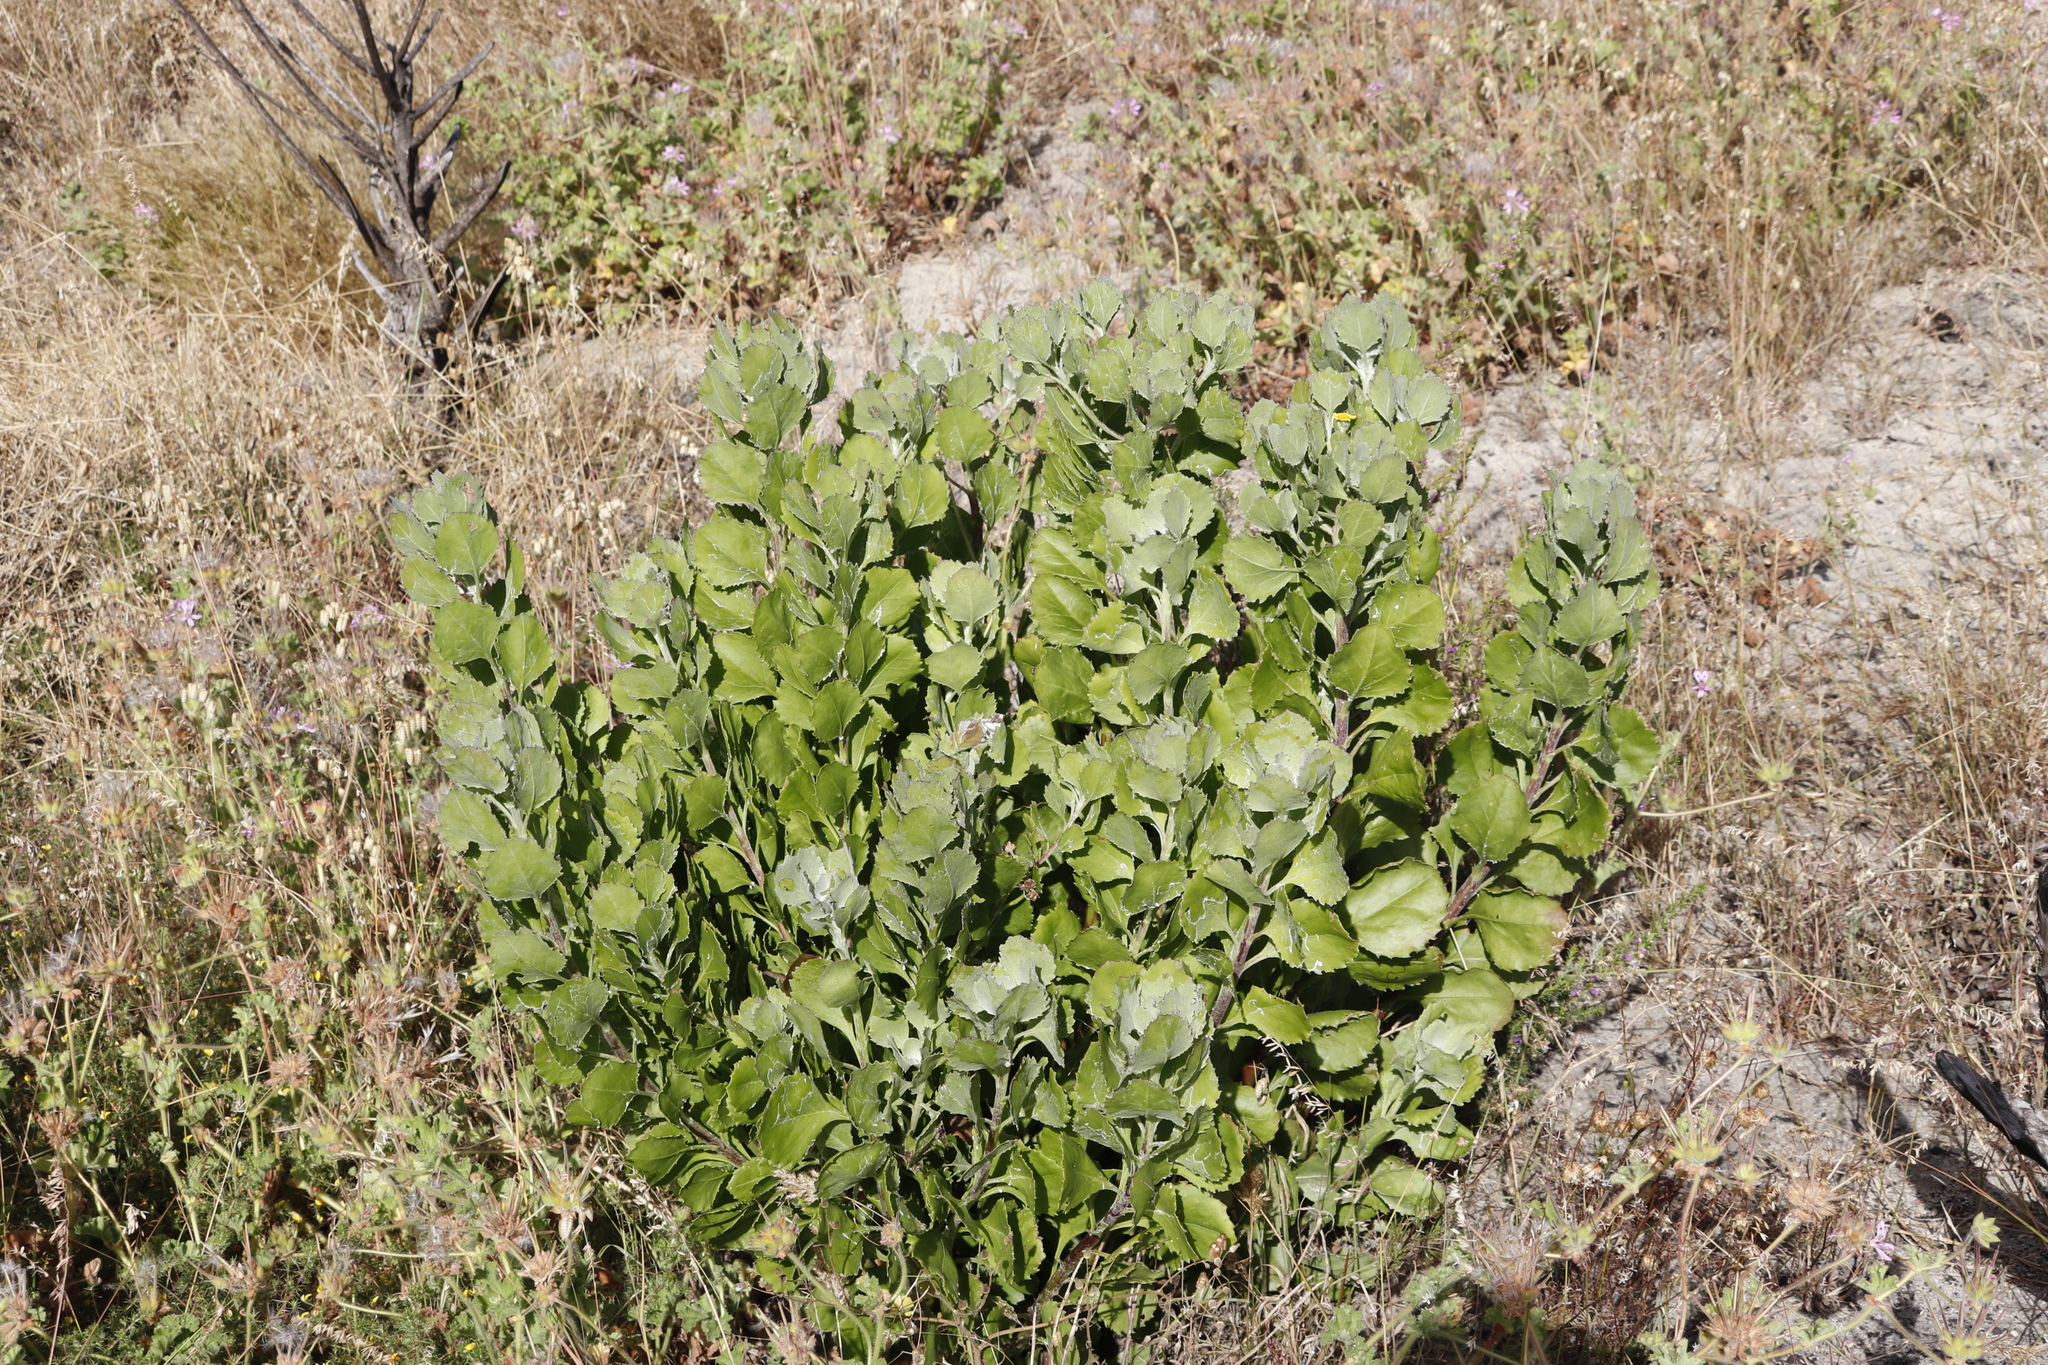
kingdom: Plantae
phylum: Tracheophyta
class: Magnoliopsida
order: Asterales
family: Asteraceae
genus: Osteospermum
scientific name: Osteospermum moniliferum
